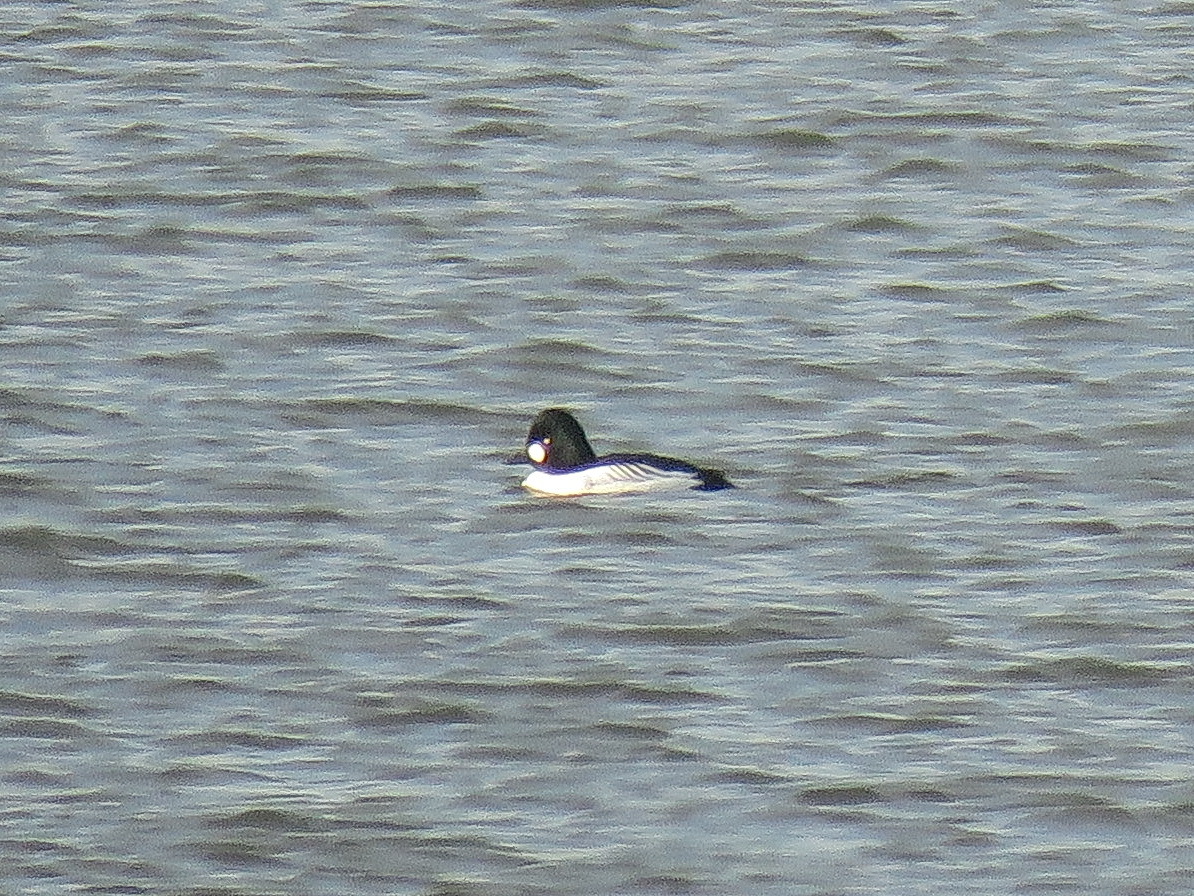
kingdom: Animalia
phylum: Chordata
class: Aves
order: Anseriformes
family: Anatidae
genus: Bucephala
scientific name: Bucephala clangula
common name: Common goldeneye
